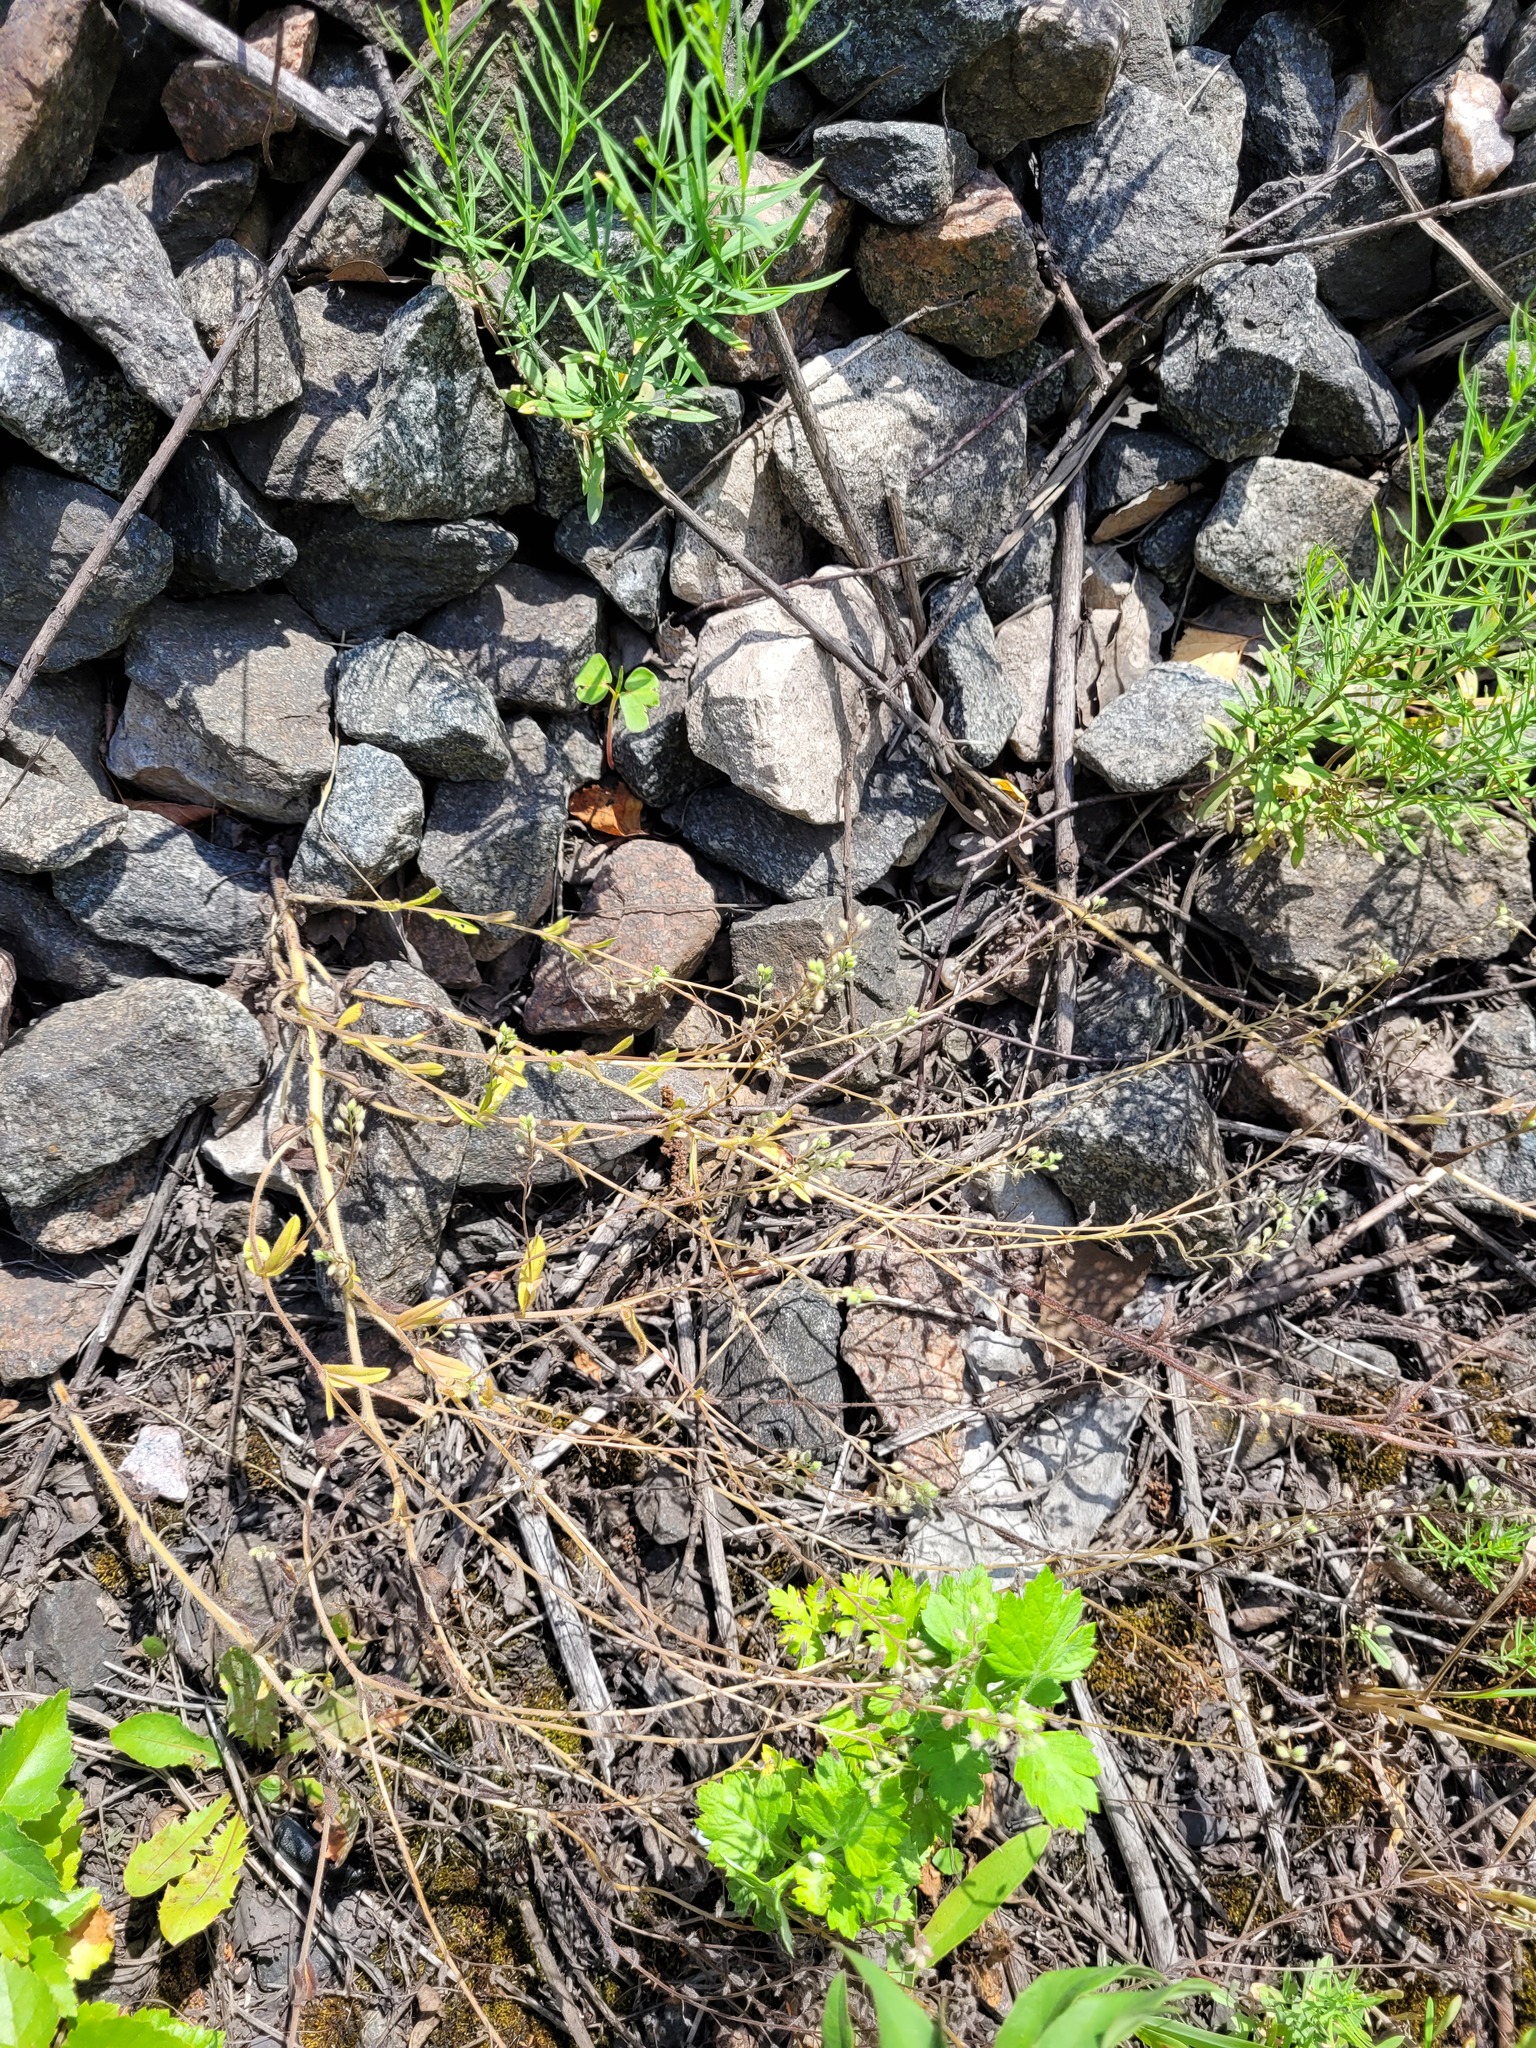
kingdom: Plantae
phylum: Tracheophyta
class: Magnoliopsida
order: Boraginales
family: Boraginaceae
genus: Myosotis
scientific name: Myosotis arvensis
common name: Field forget-me-not
